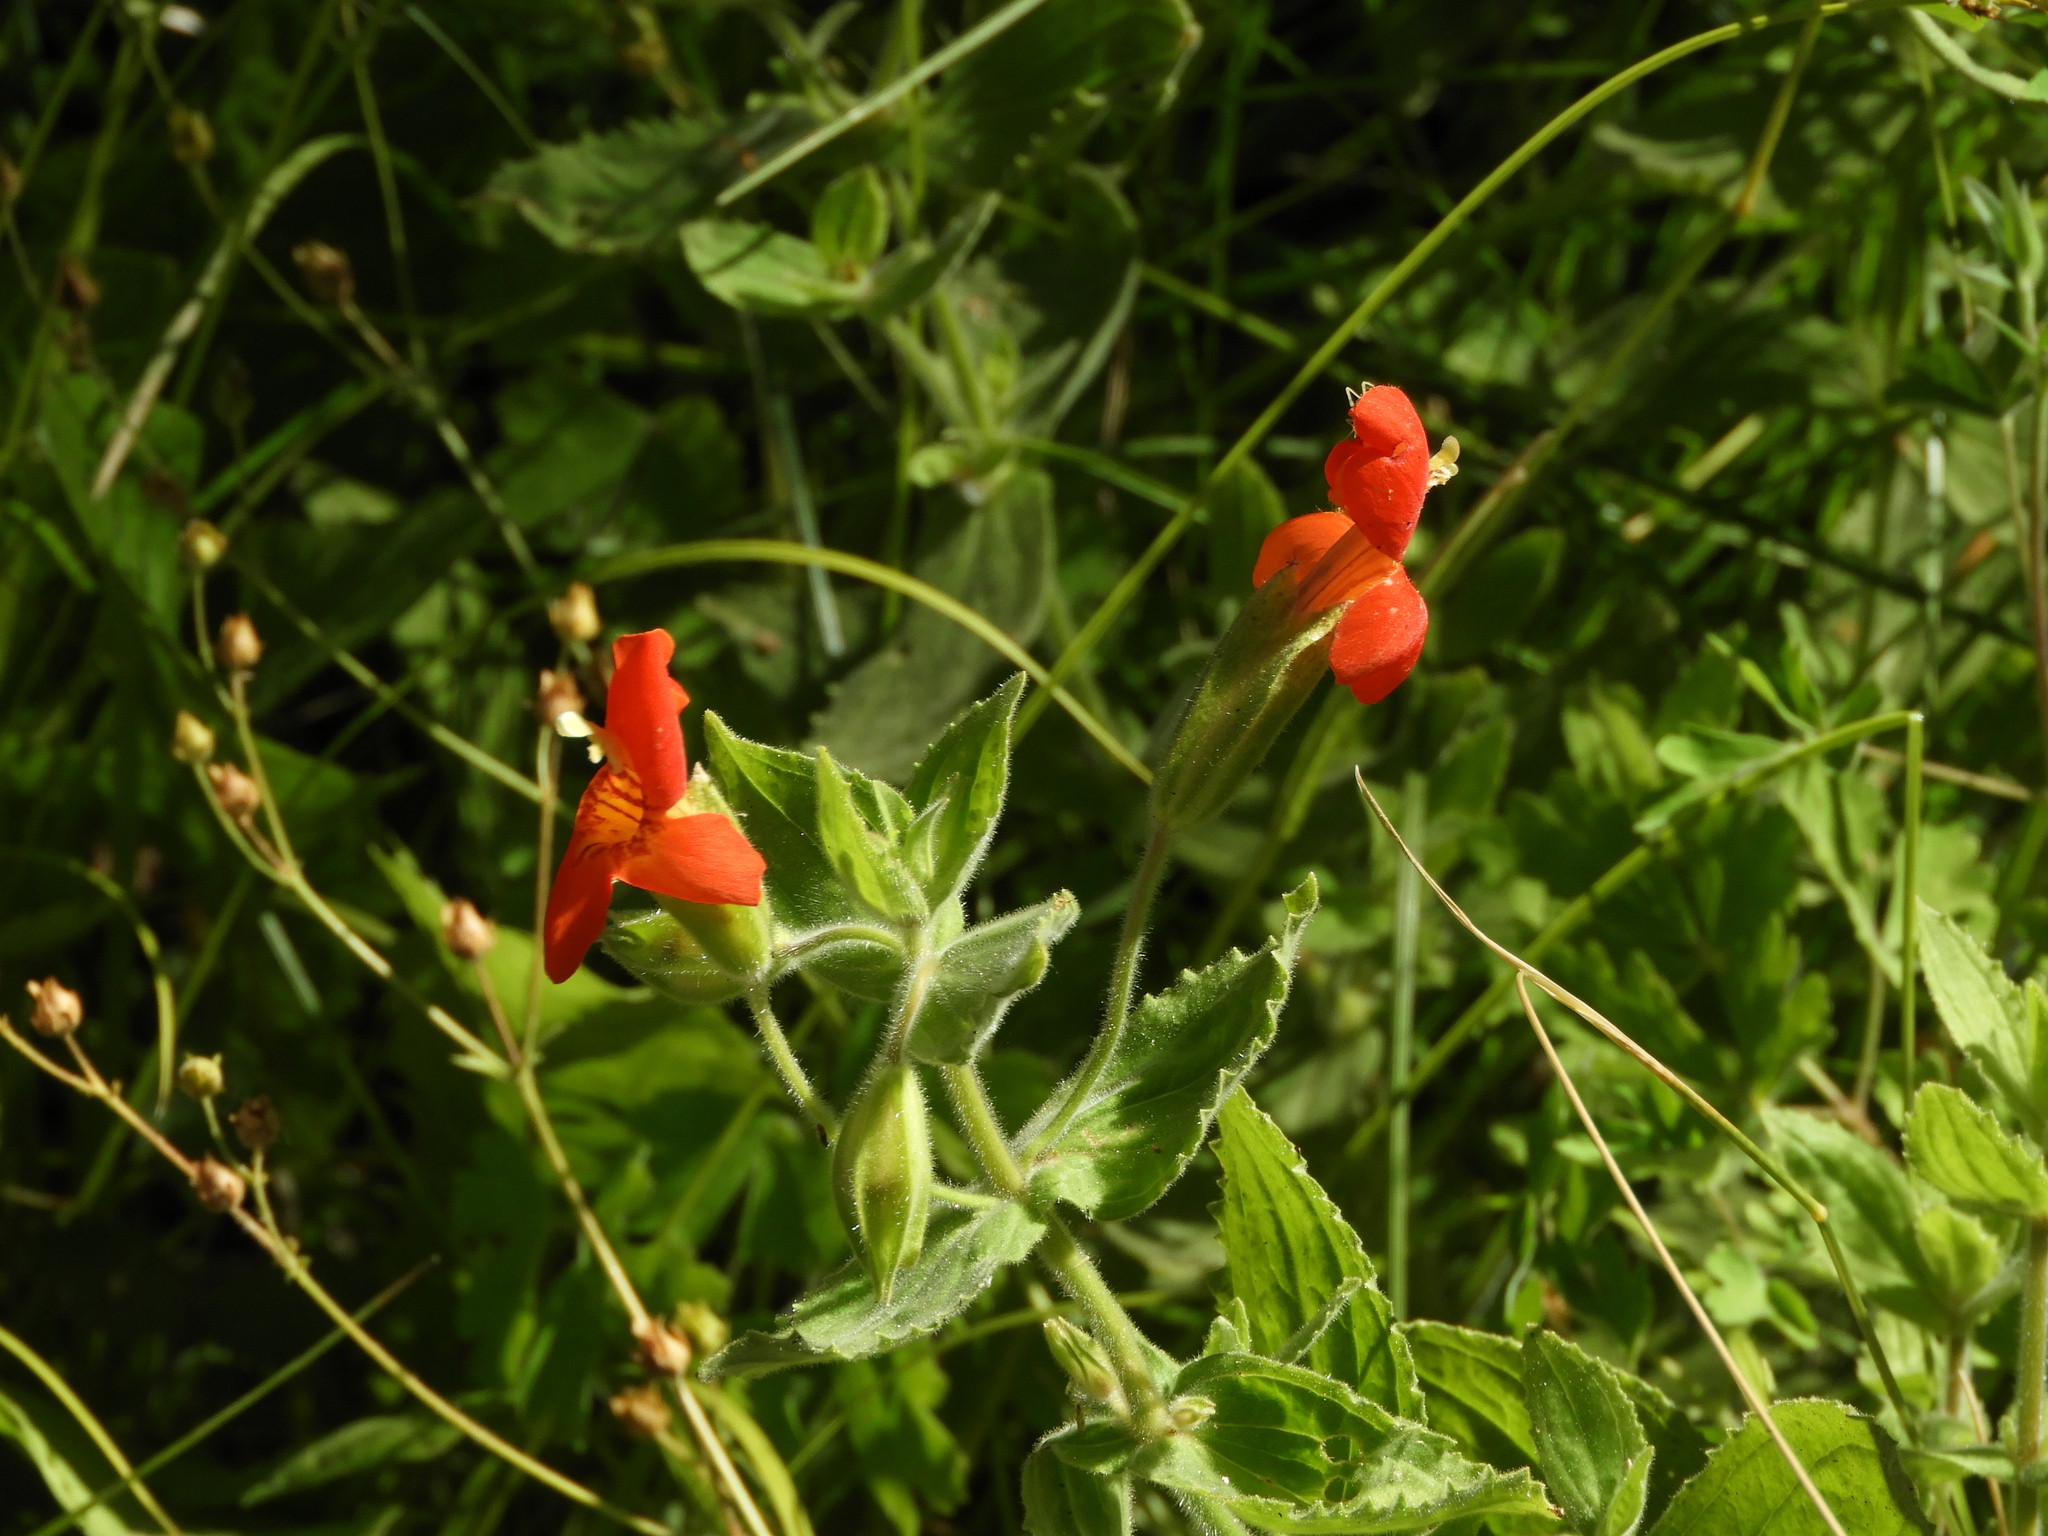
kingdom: Plantae
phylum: Tracheophyta
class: Magnoliopsida
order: Lamiales
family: Phrymaceae
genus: Erythranthe
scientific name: Erythranthe cardinalis
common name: Scarlet monkey-flower
